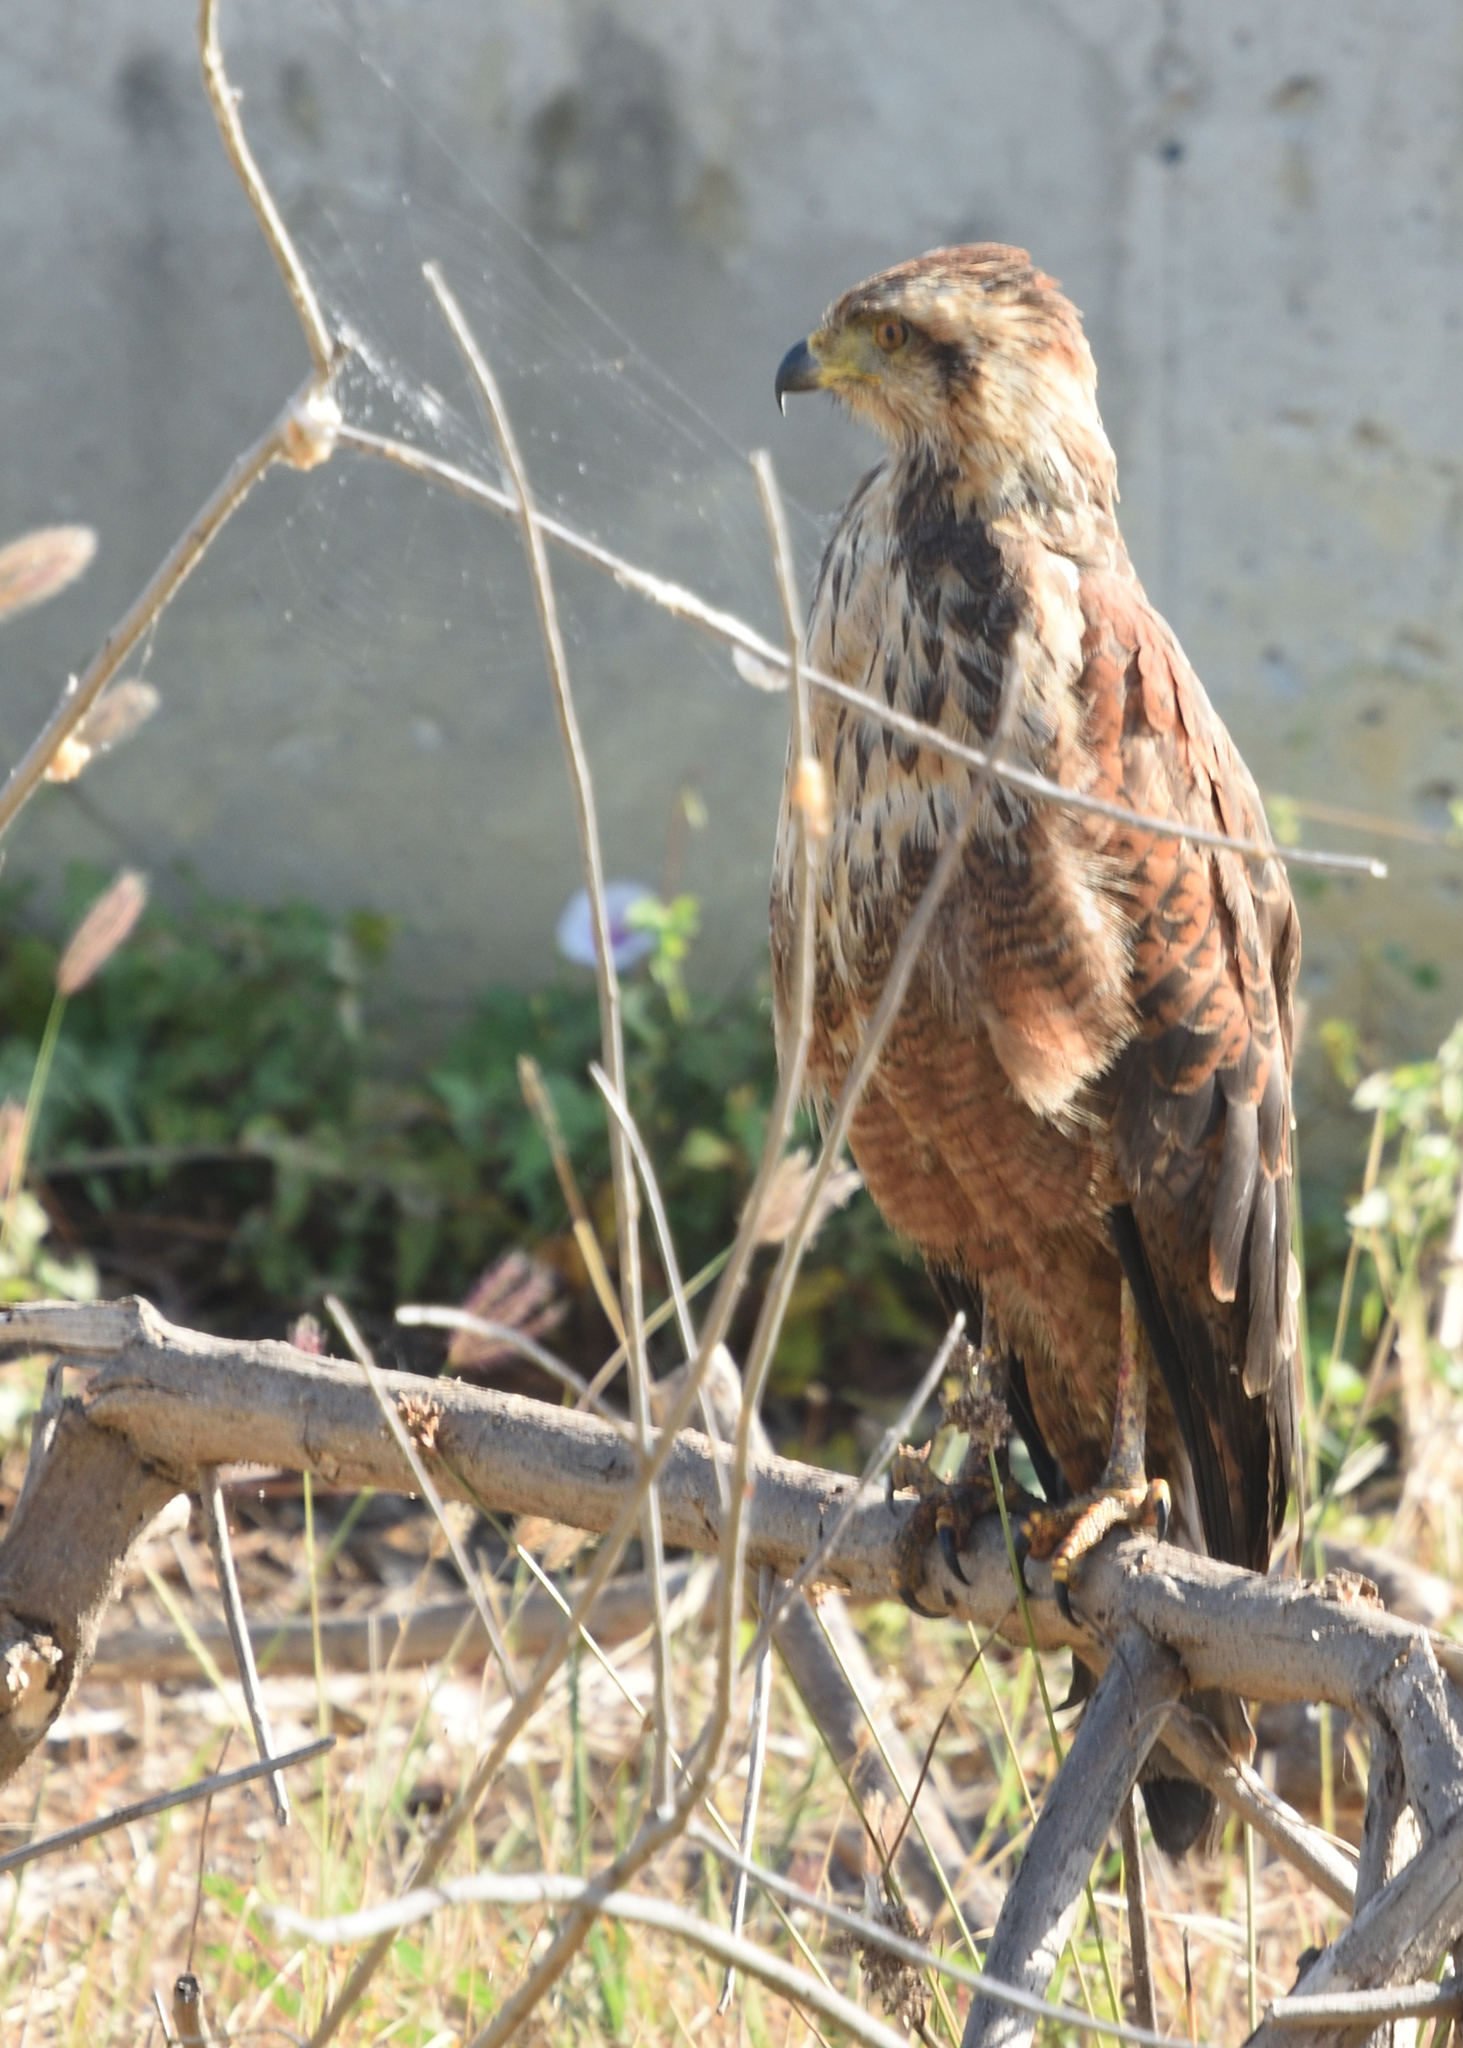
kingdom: Animalia
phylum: Chordata
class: Aves
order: Accipitriformes
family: Accipitridae
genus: Buteogallus
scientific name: Buteogallus meridionalis
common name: Savanna hawk
